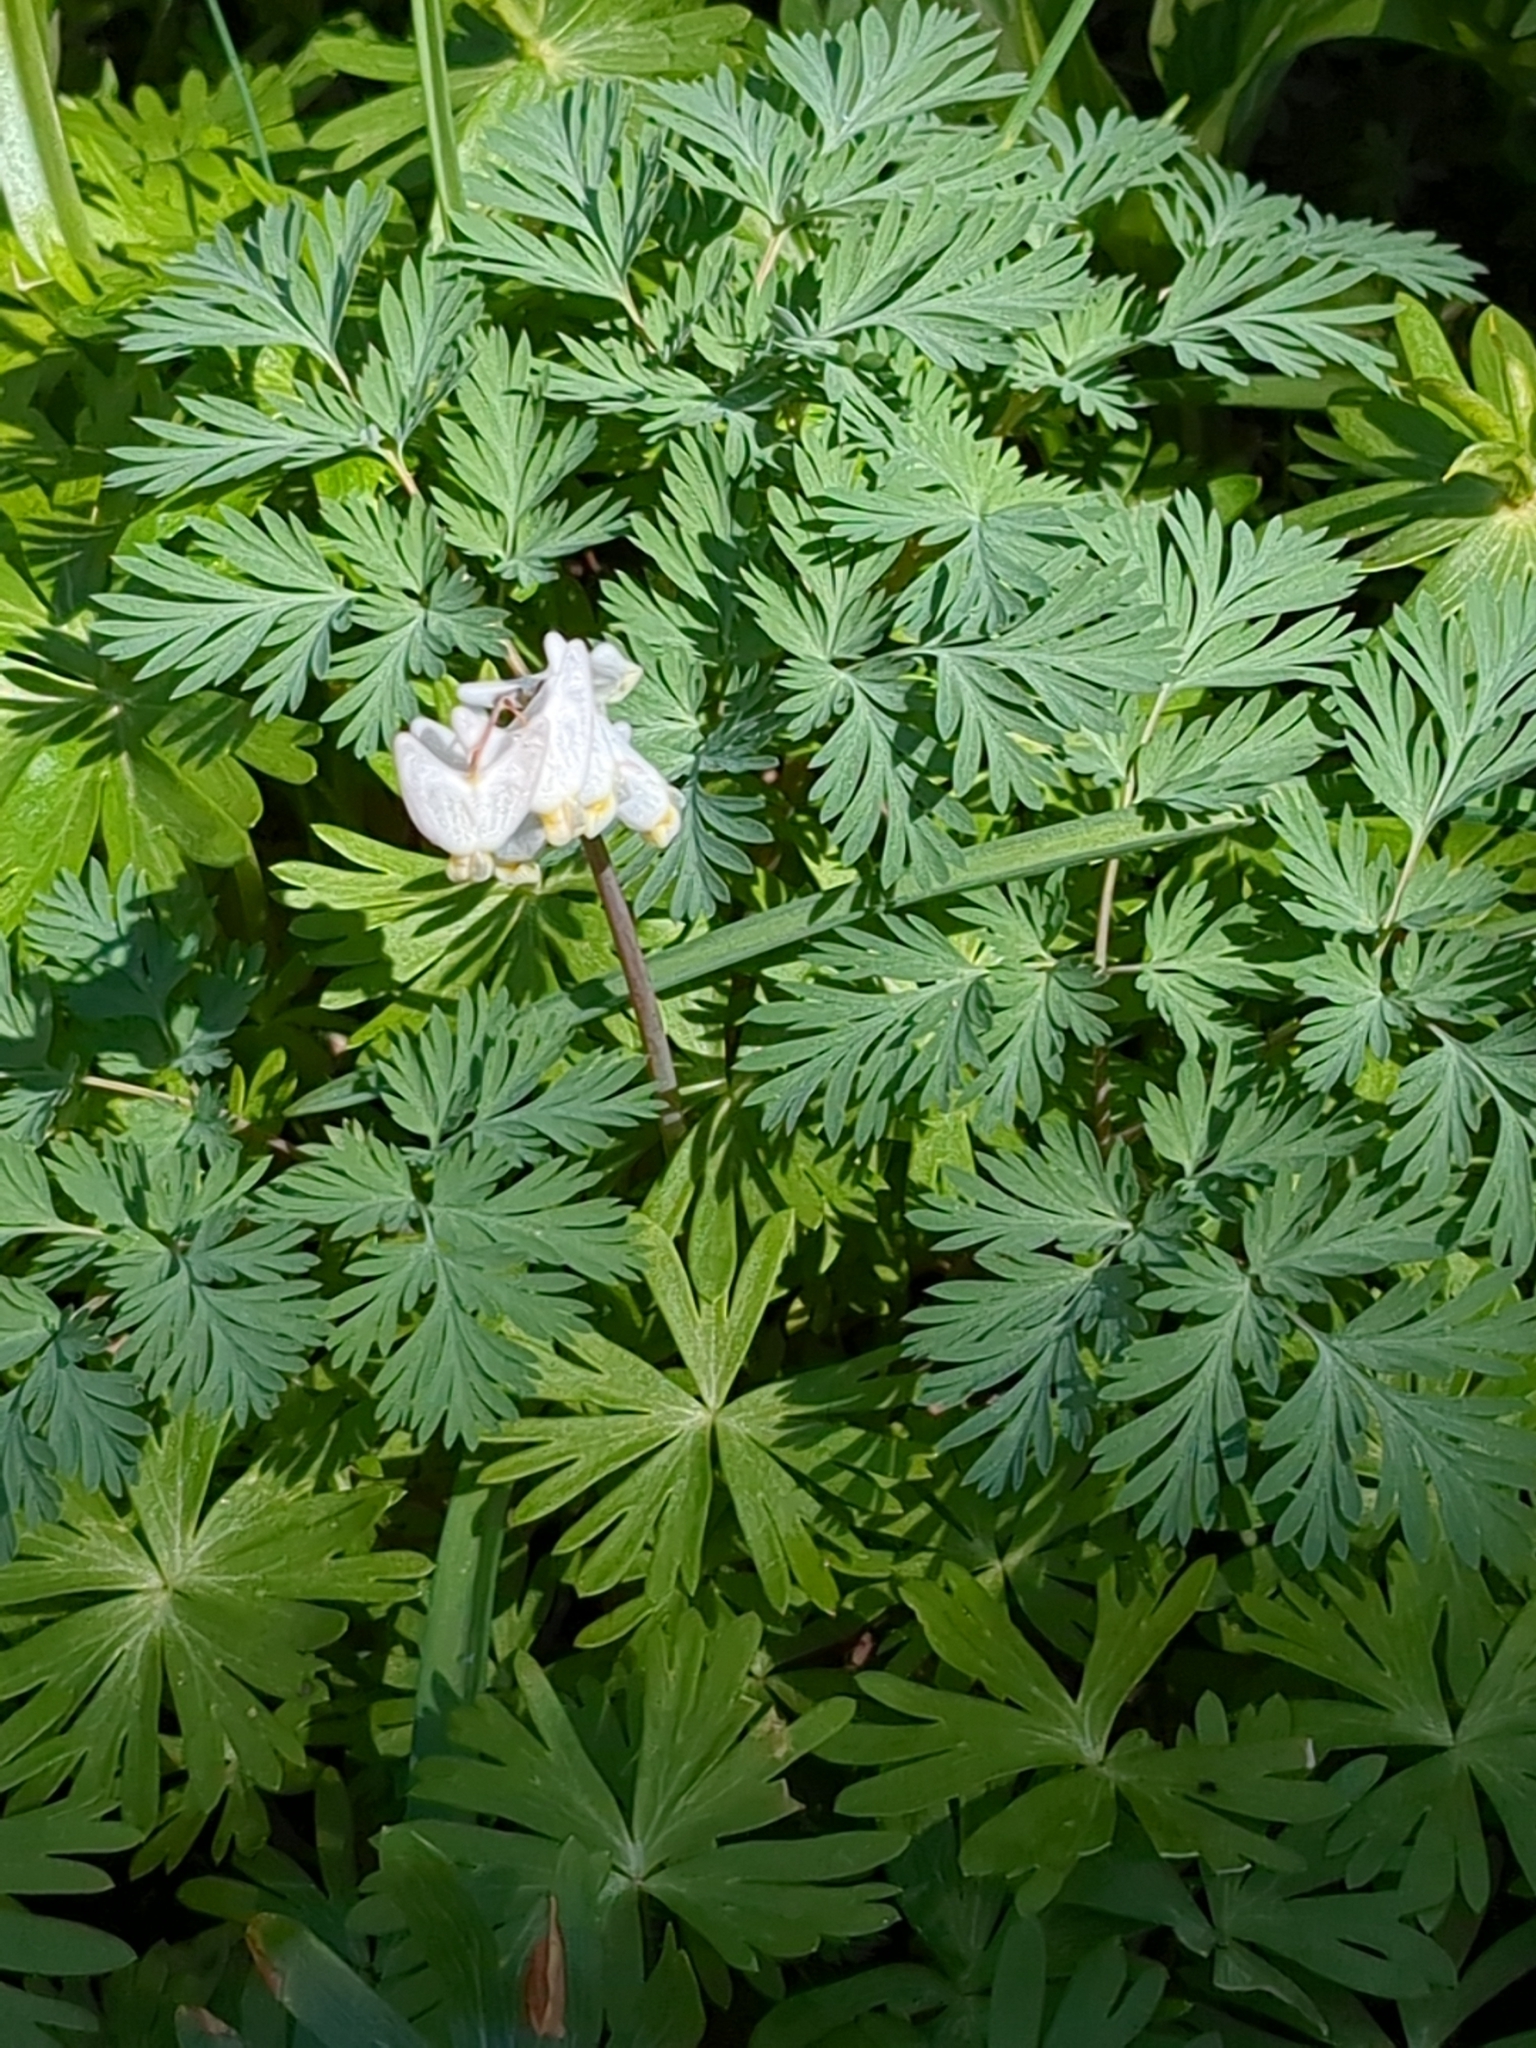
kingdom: Plantae
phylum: Tracheophyta
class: Magnoliopsida
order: Ranunculales
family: Papaveraceae
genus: Dicentra
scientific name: Dicentra cucullaria
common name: Dutchman's breeches
